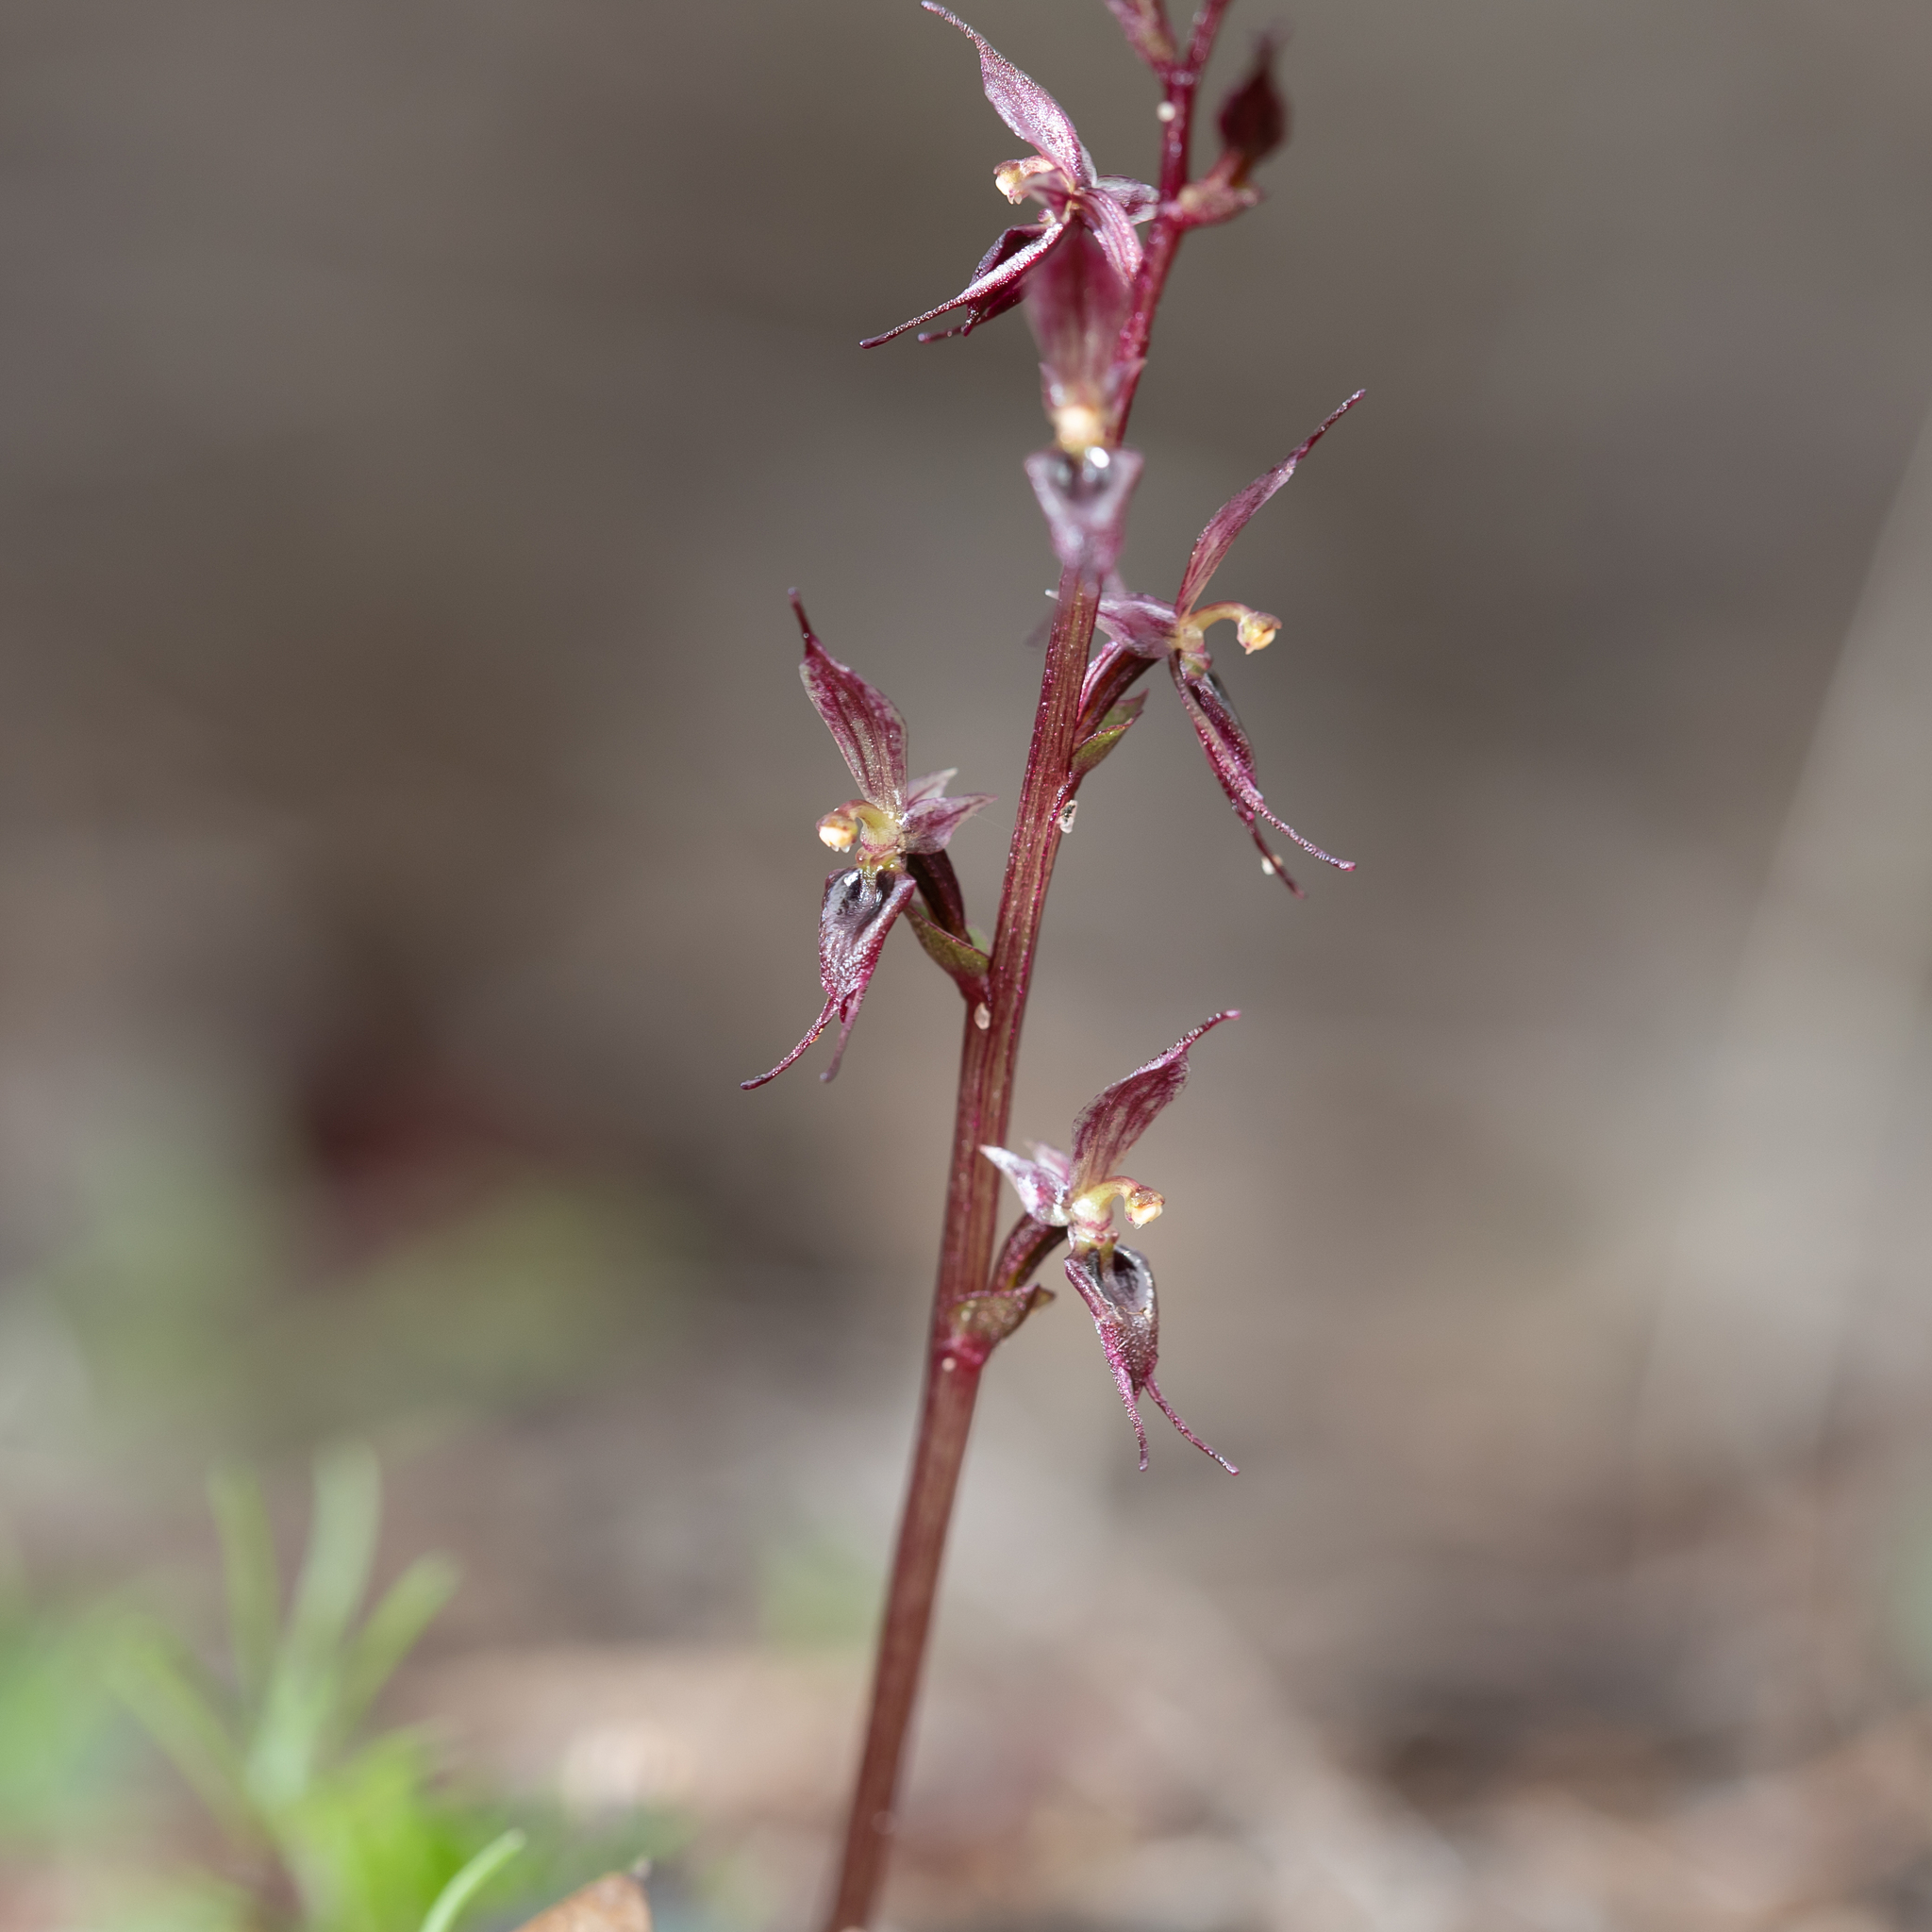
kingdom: Plantae
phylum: Tracheophyta
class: Liliopsida
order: Asparagales
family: Orchidaceae
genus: Acianthus
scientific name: Acianthus pusillus
